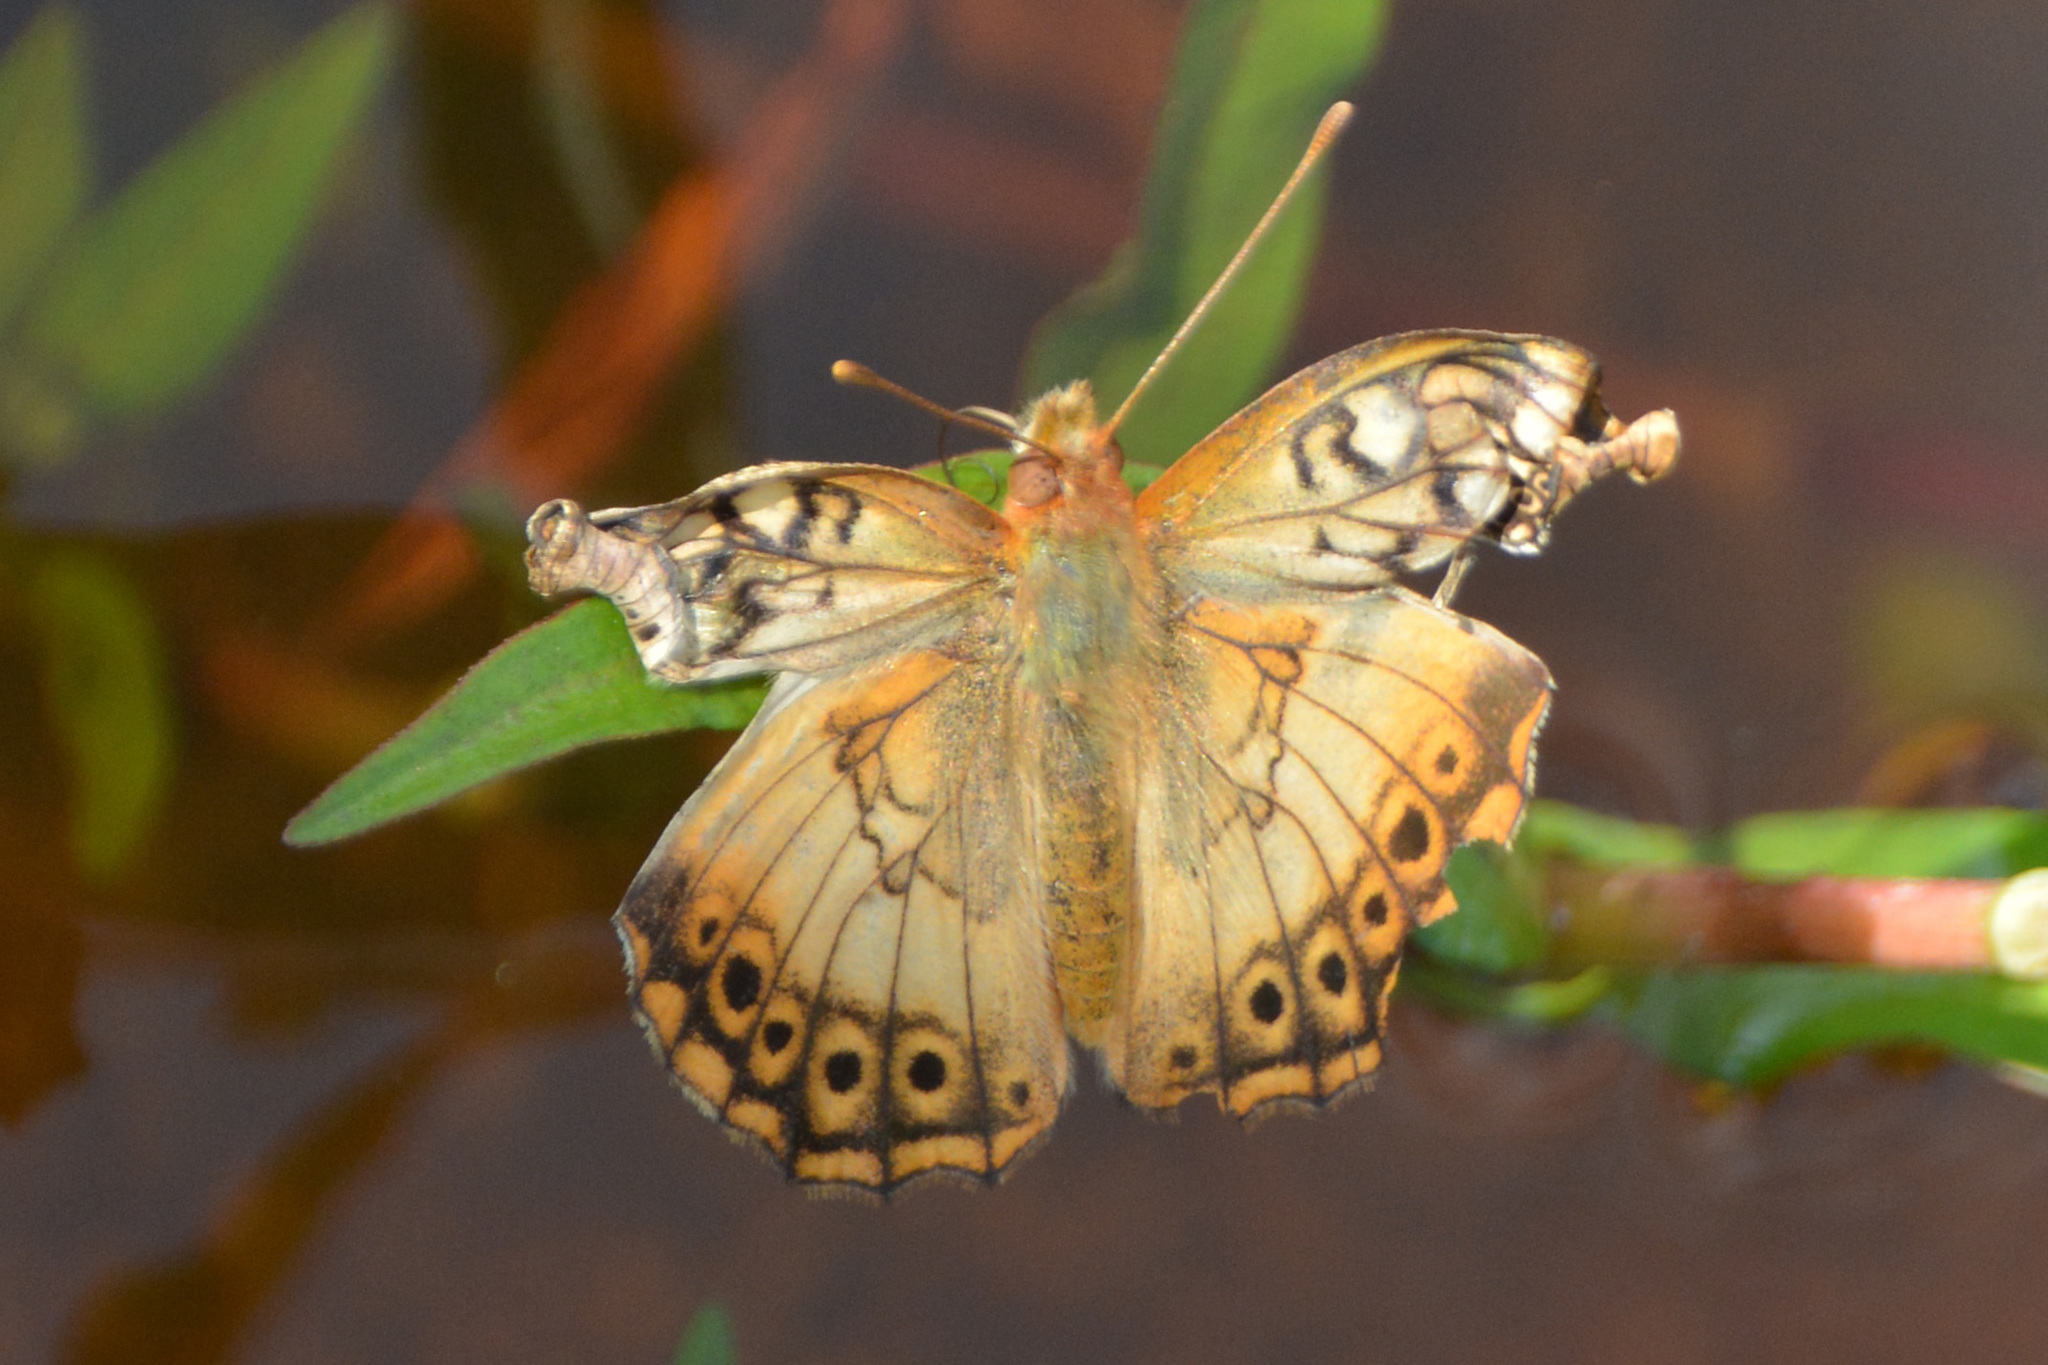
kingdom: Animalia
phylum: Arthropoda
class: Insecta
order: Lepidoptera
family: Nymphalidae
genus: Euptoieta
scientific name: Euptoieta hortensia
